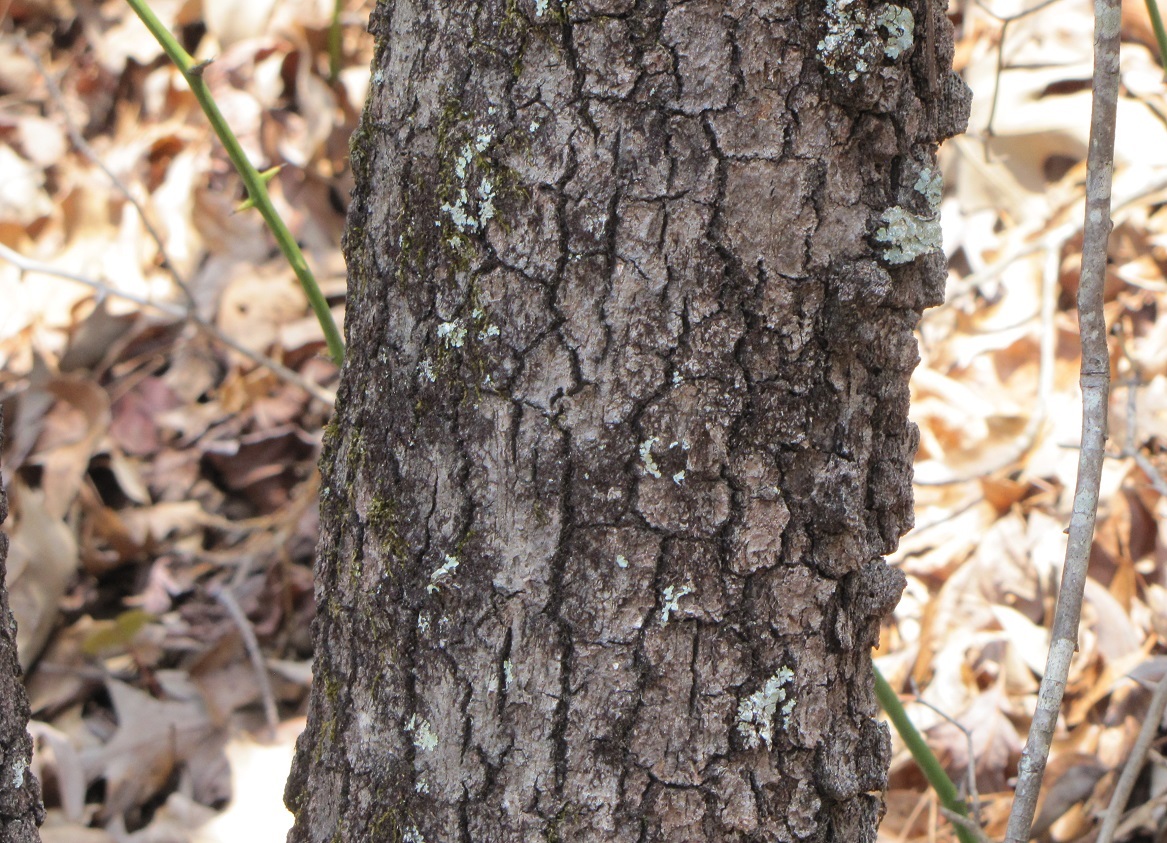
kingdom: Plantae
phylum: Tracheophyta
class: Magnoliopsida
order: Fagales
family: Fagaceae
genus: Quercus
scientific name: Quercus marilandica
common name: Blackjack oak
